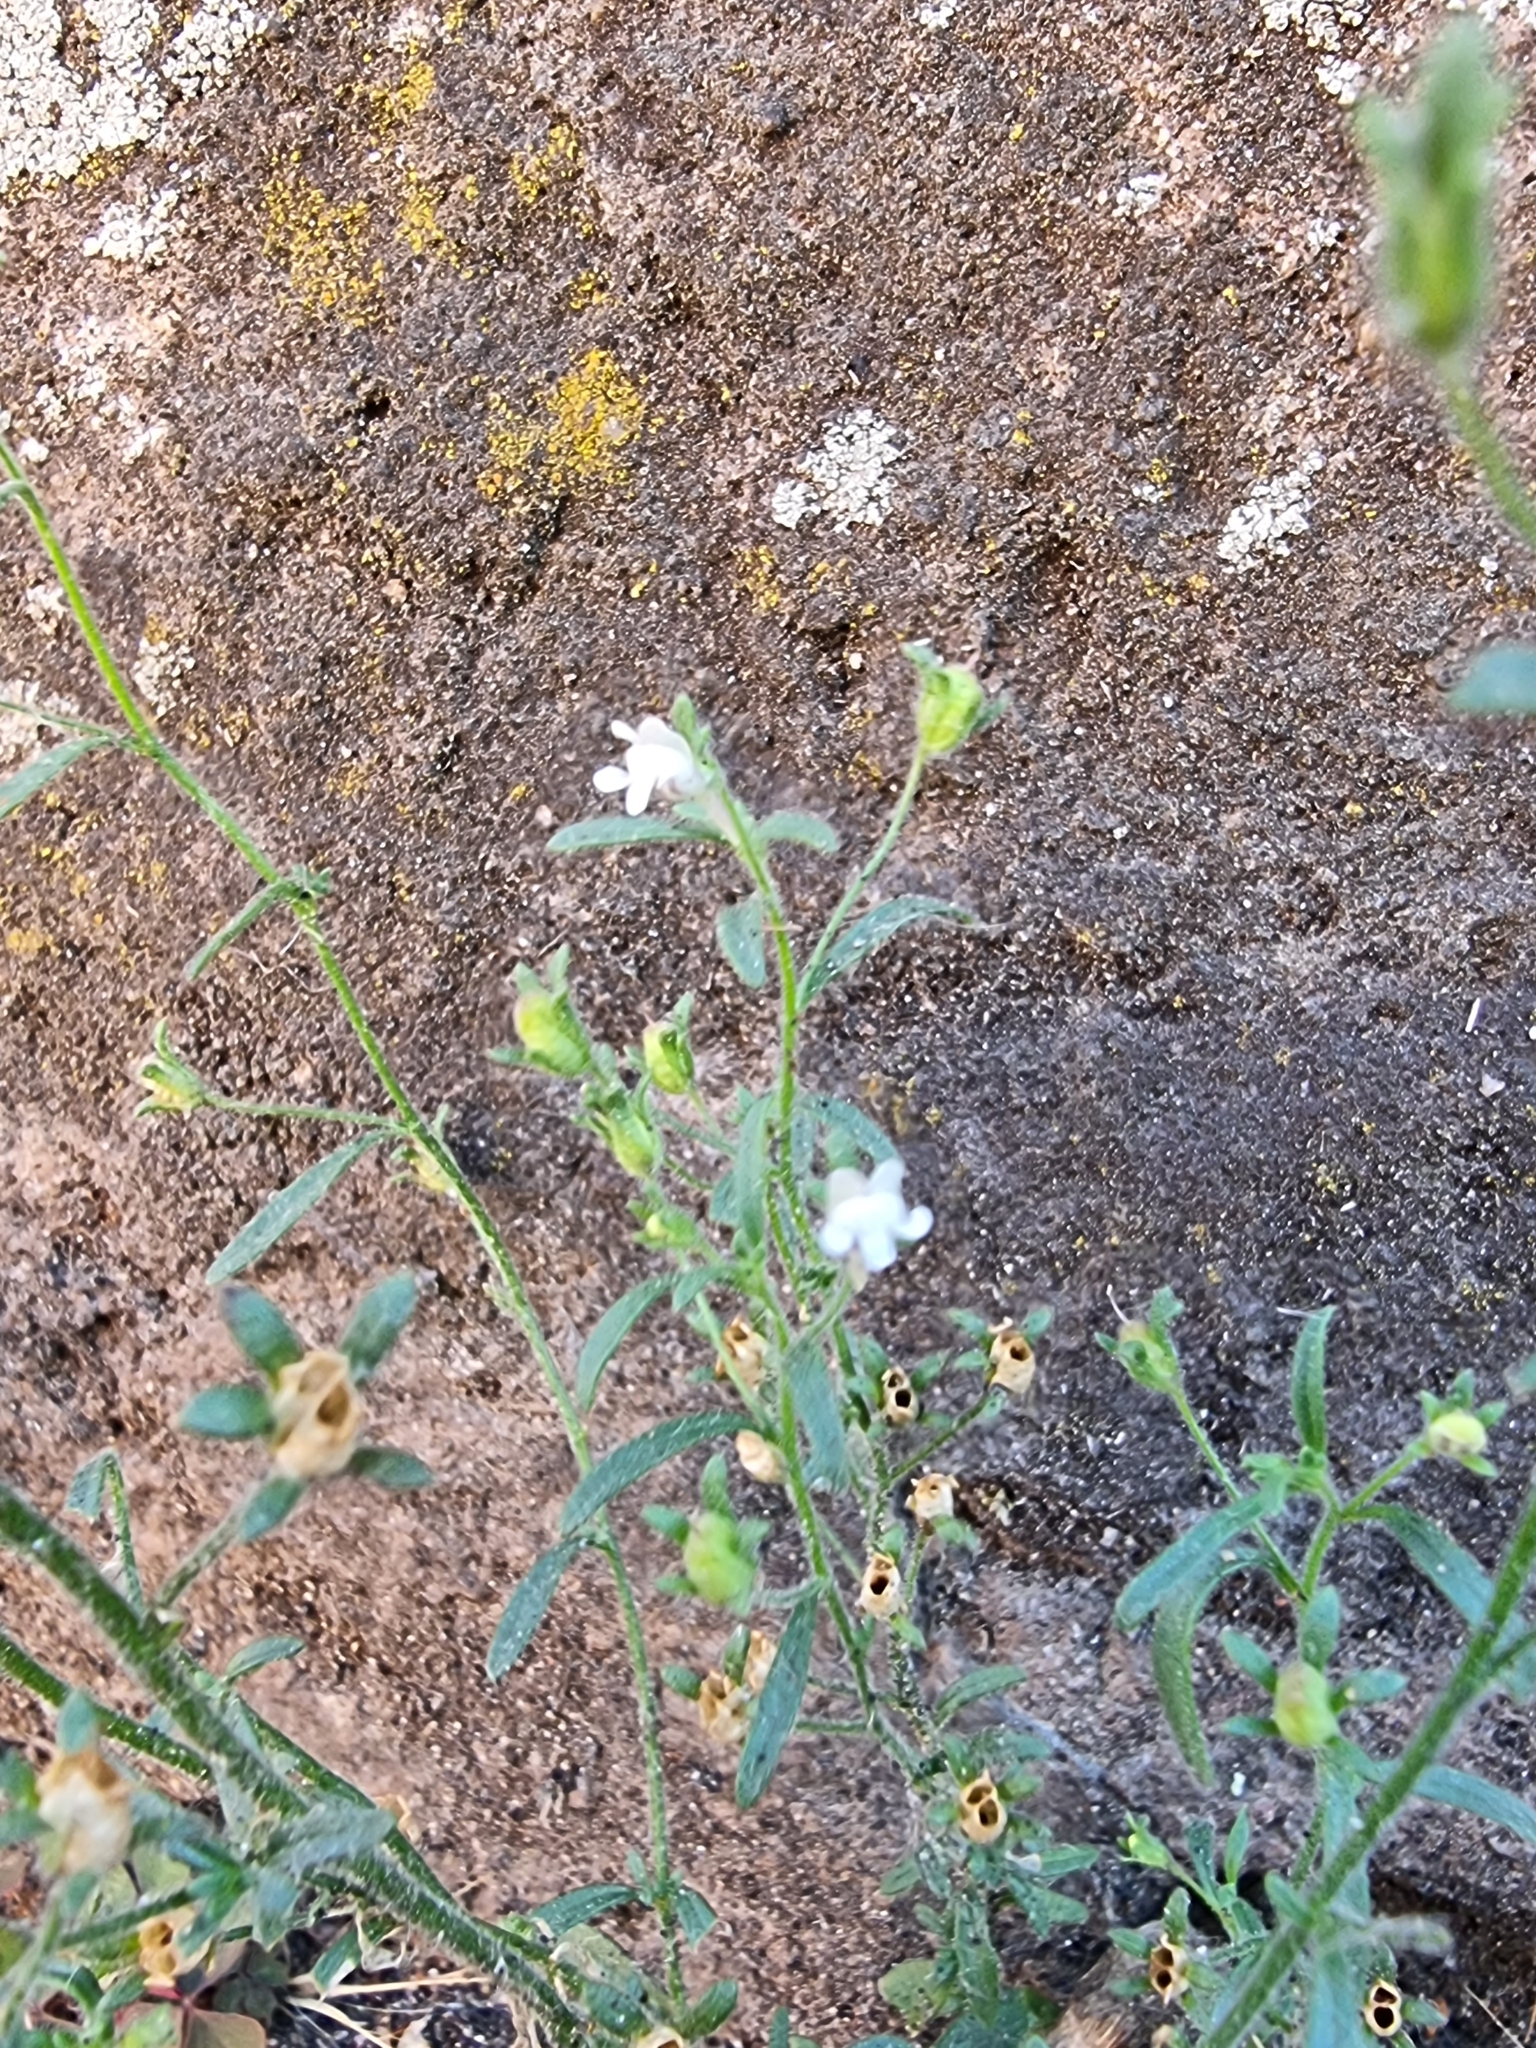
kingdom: Plantae
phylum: Tracheophyta
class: Magnoliopsida
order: Lamiales
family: Plantaginaceae
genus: Chaenorhinum
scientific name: Chaenorhinum minus
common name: Dwarf snapdragon
